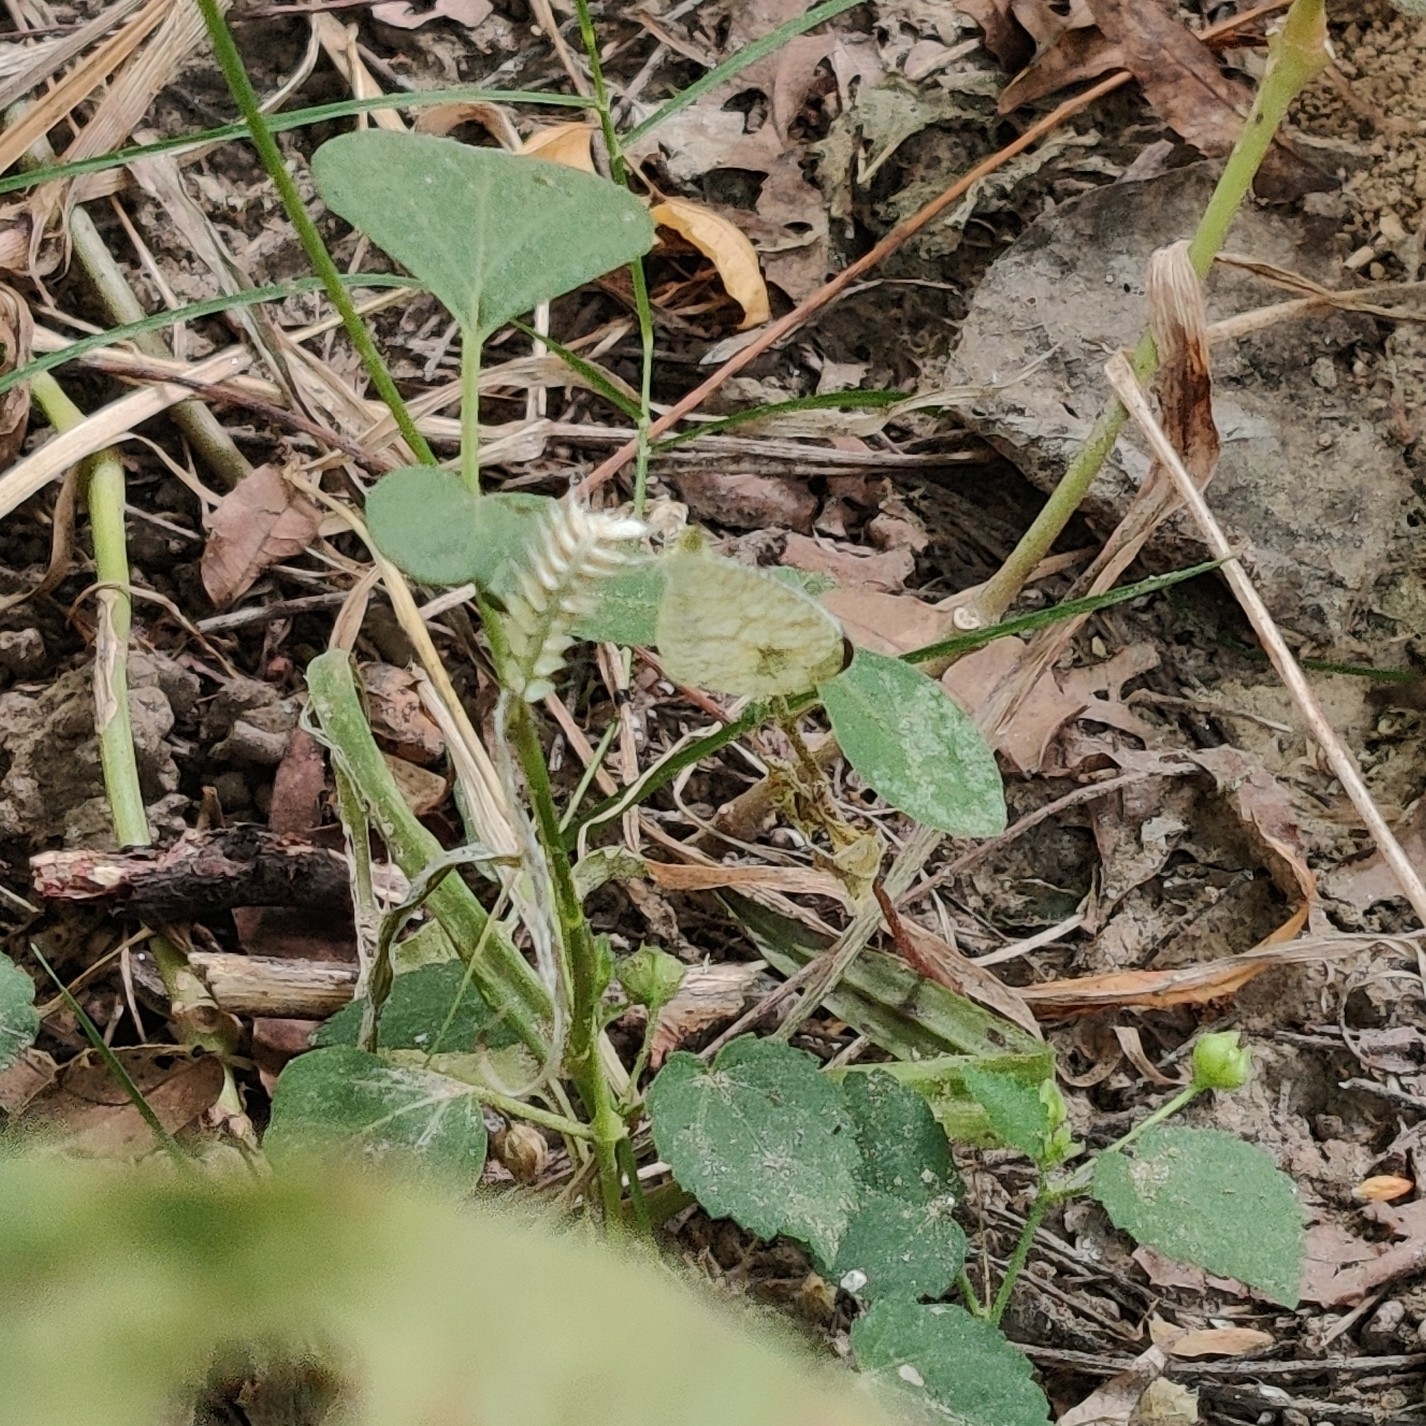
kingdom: Animalia
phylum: Arthropoda
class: Insecta
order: Lepidoptera
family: Pieridae
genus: Leptosia
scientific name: Leptosia nina
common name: Psyche
